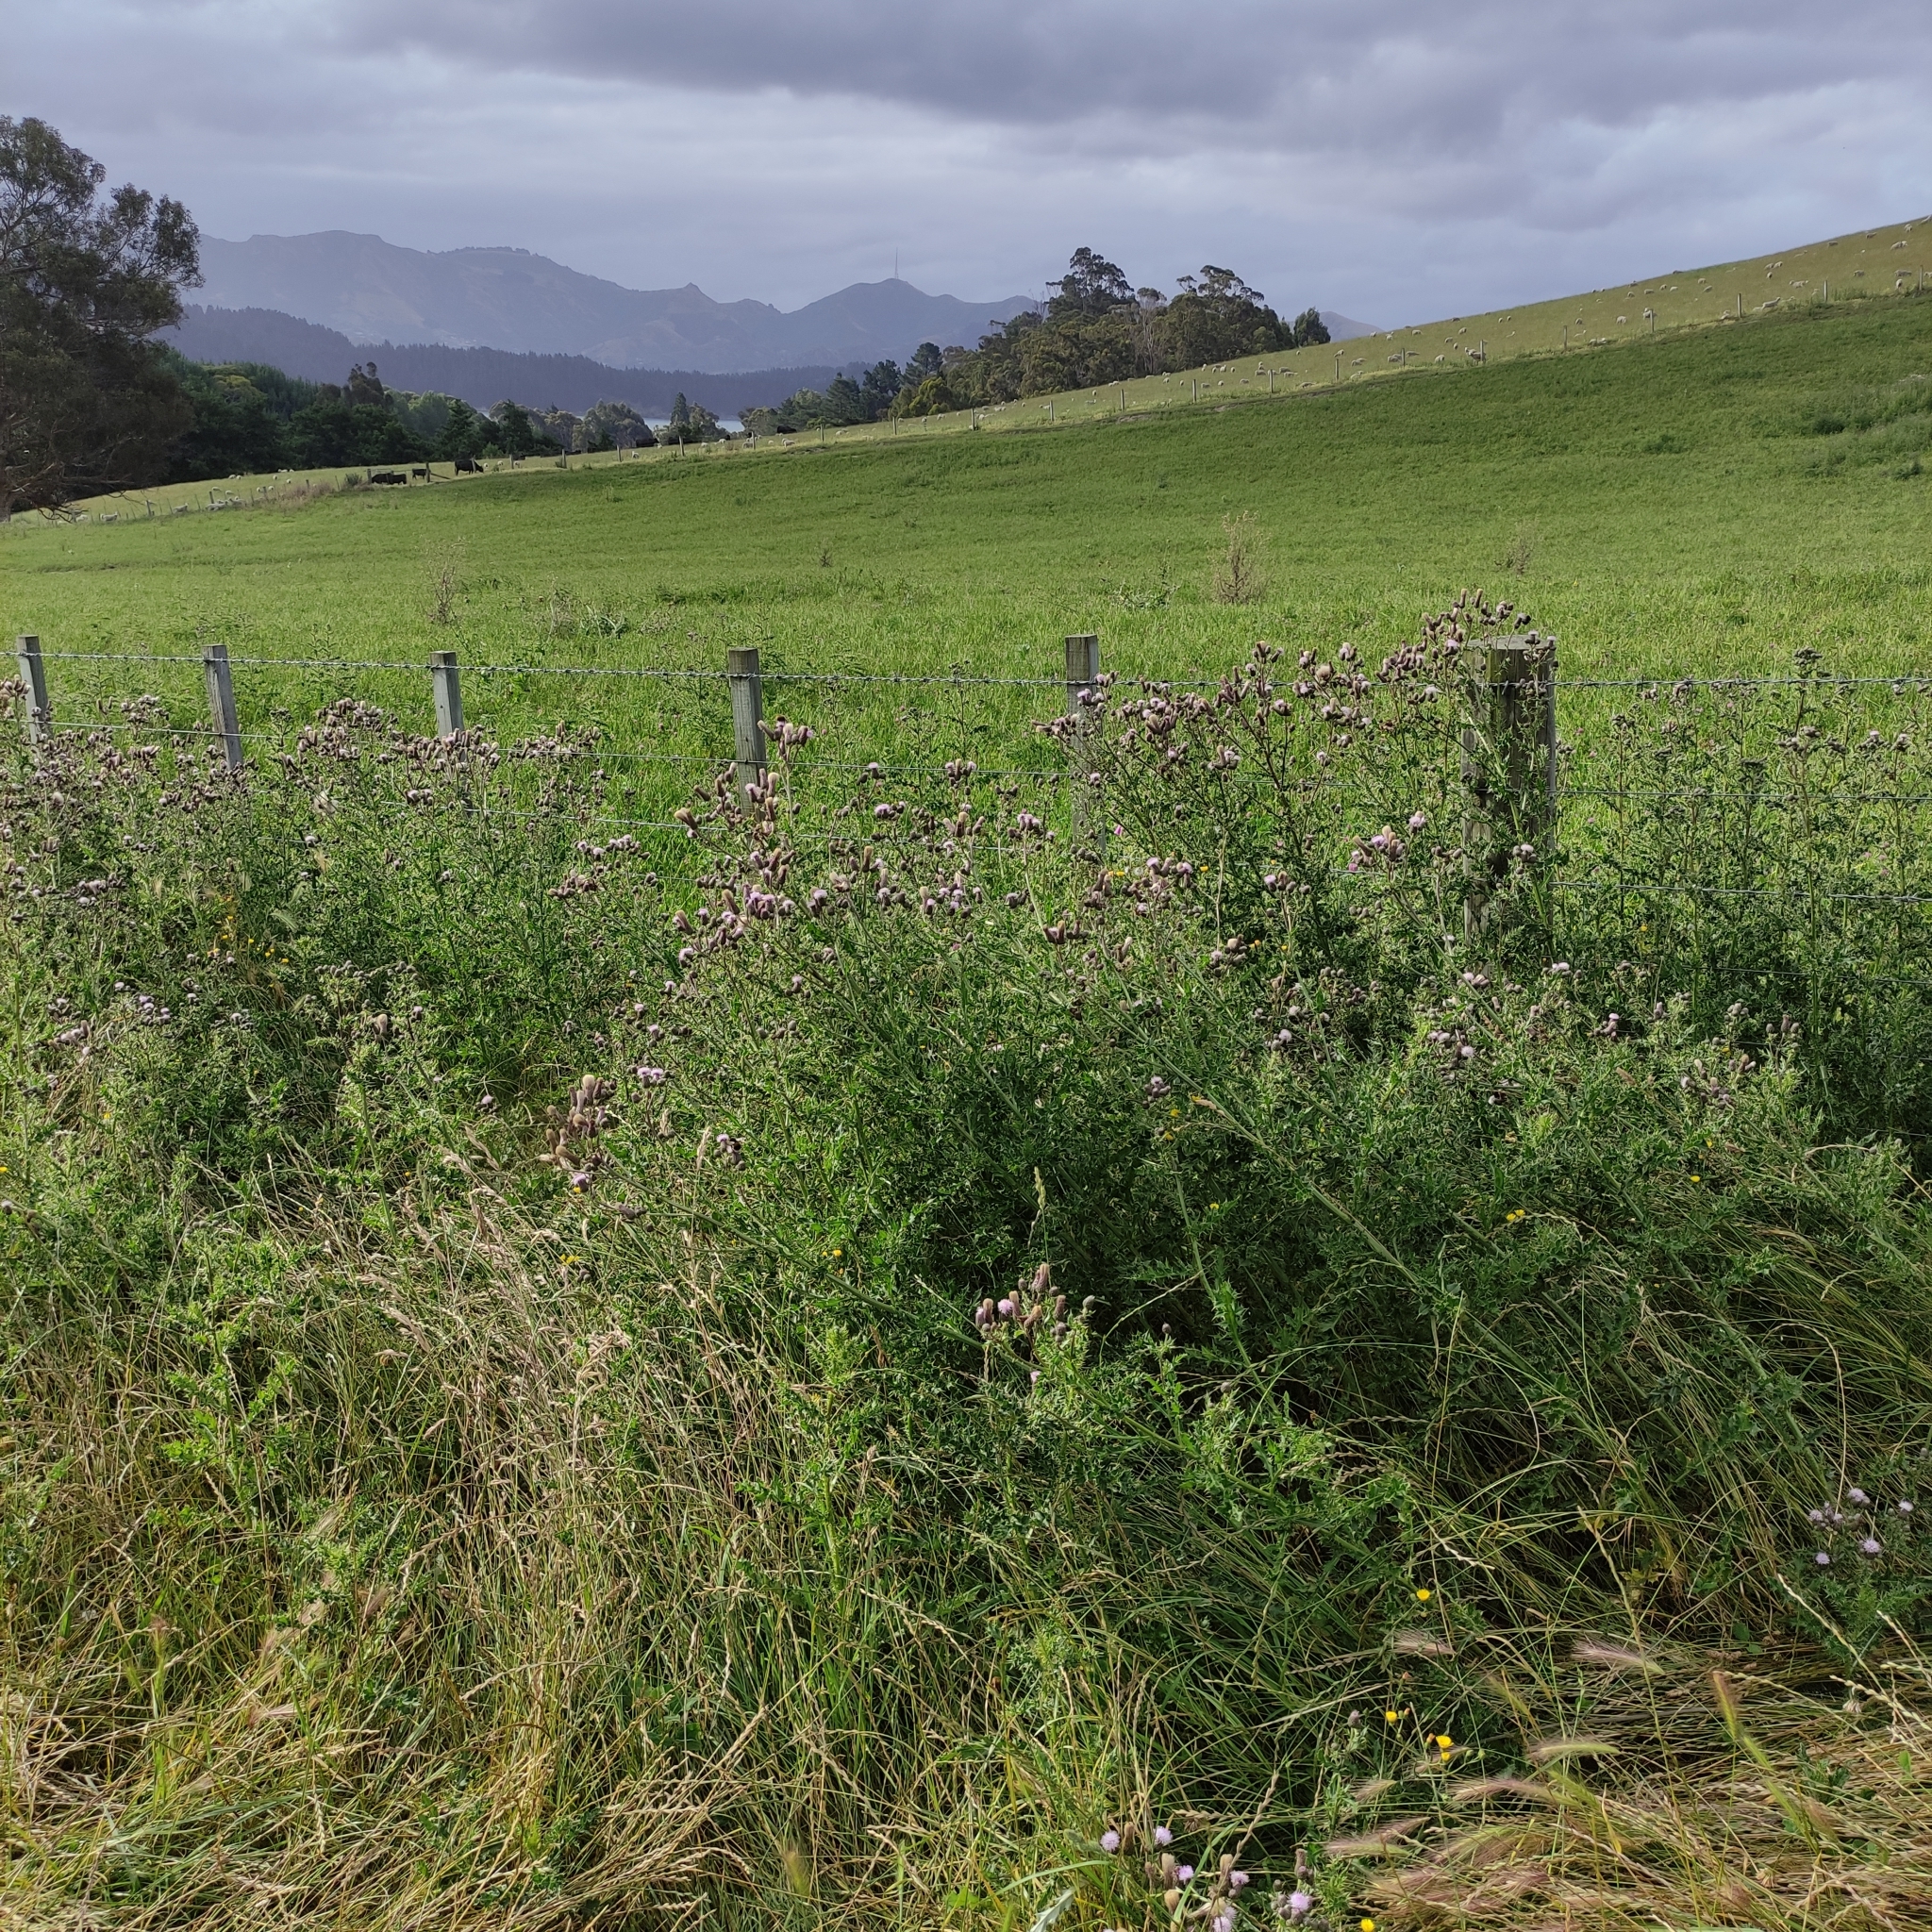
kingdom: Plantae
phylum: Tracheophyta
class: Magnoliopsida
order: Asterales
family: Asteraceae
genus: Cirsium
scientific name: Cirsium arvense
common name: Creeping thistle
